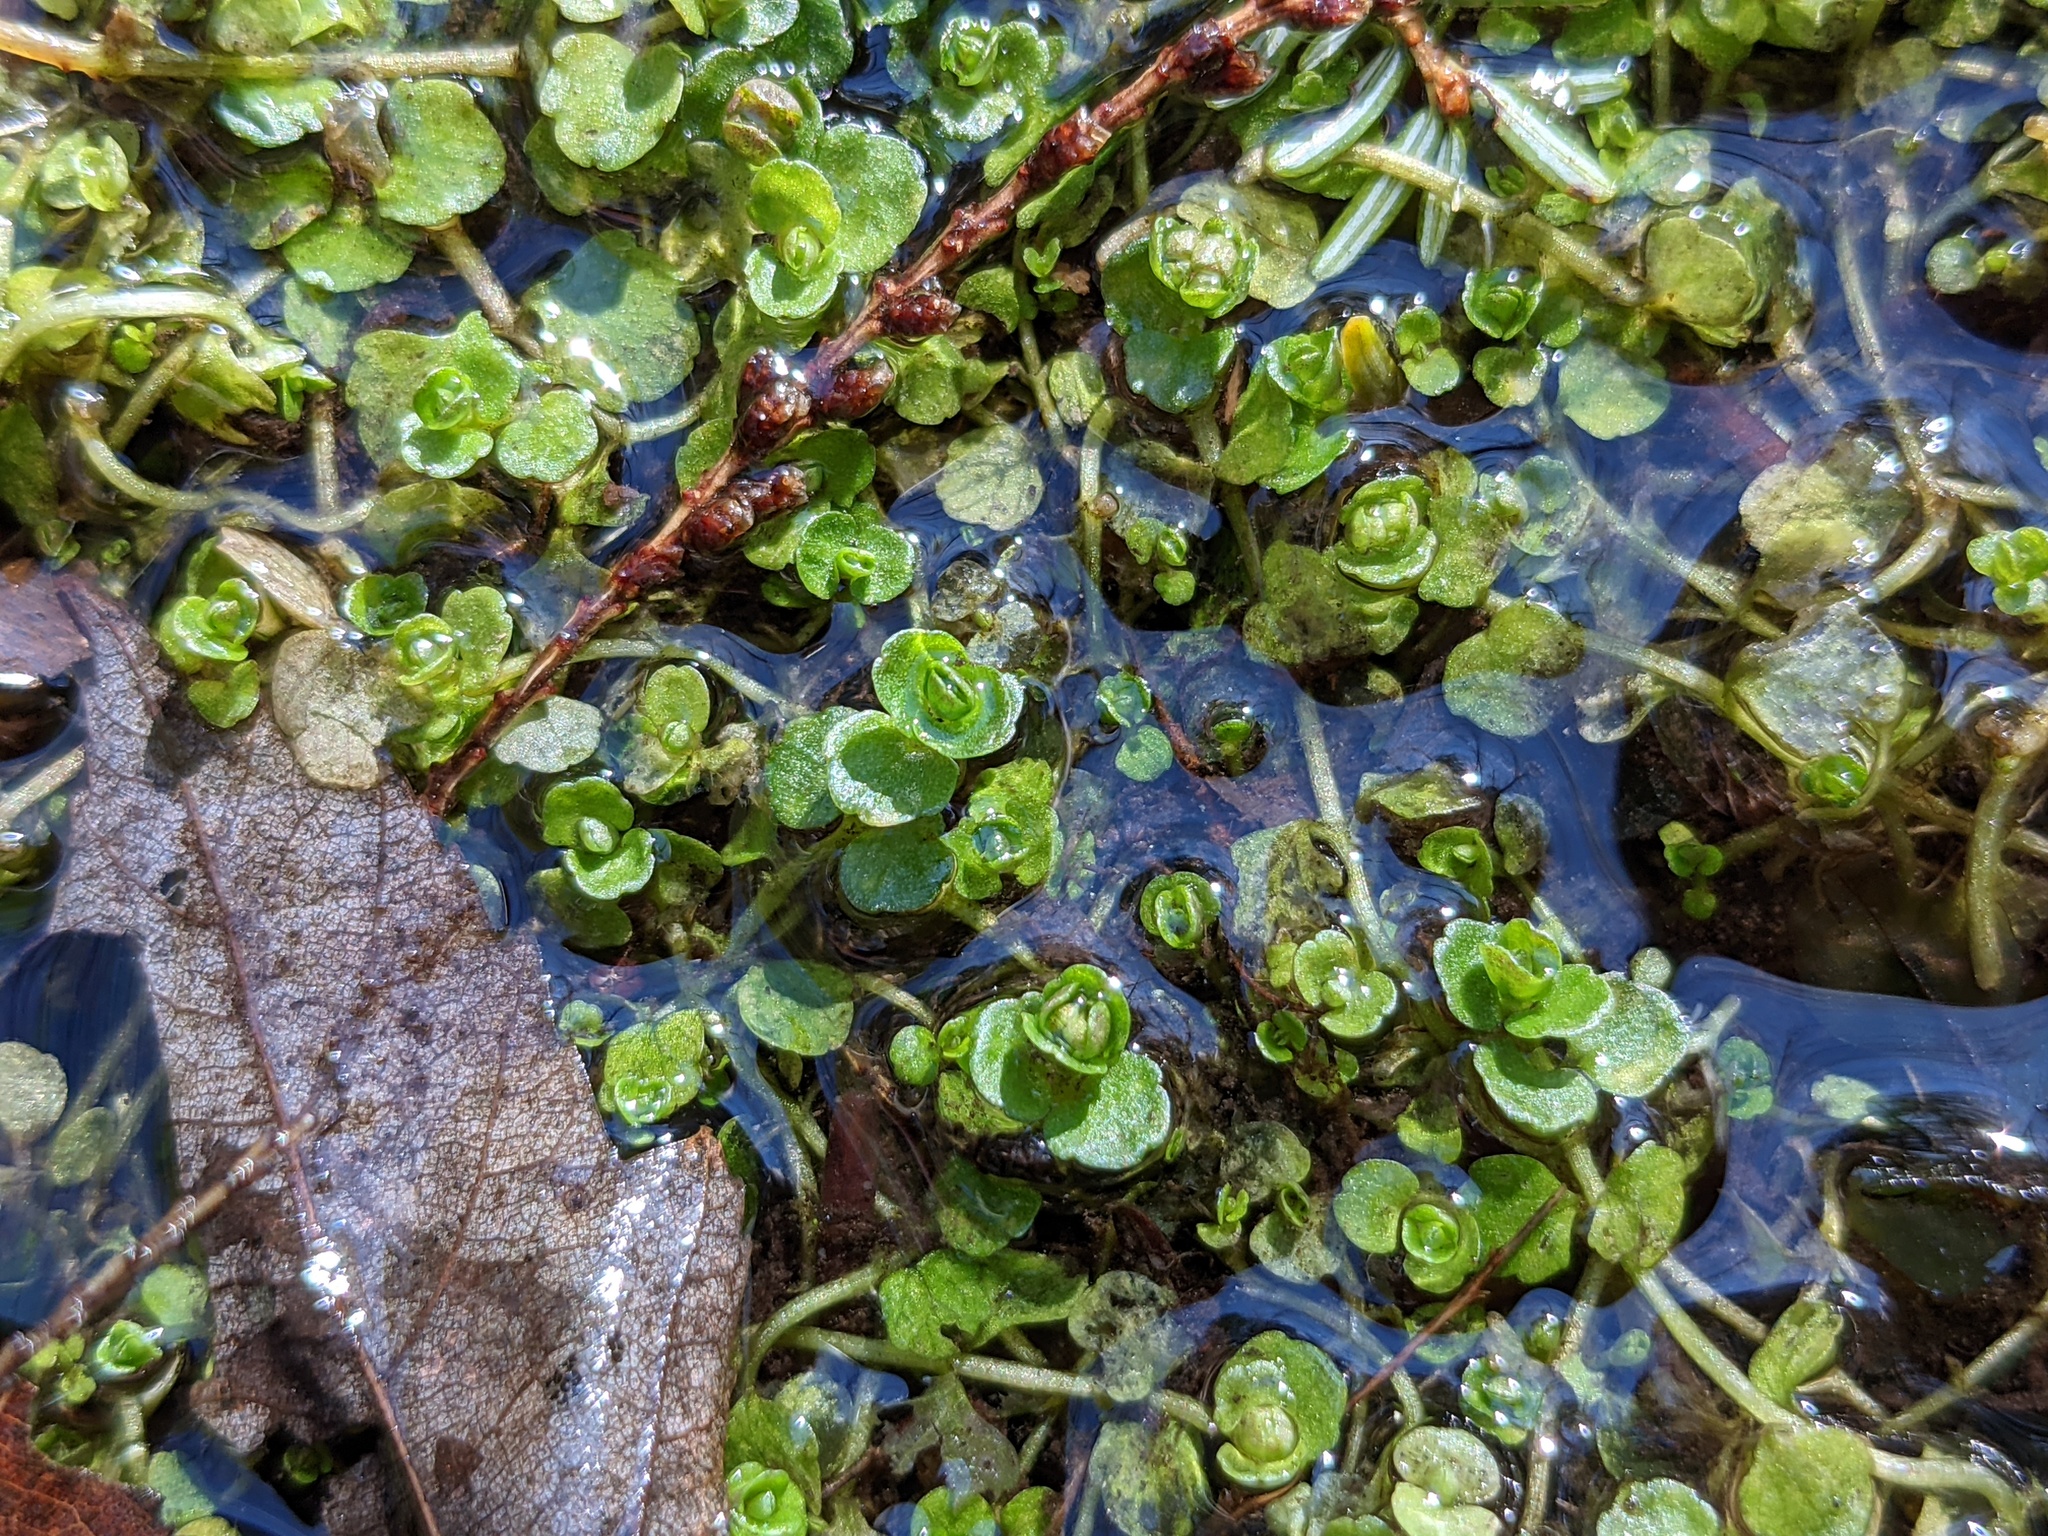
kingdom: Plantae
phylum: Tracheophyta
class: Magnoliopsida
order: Saxifragales
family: Saxifragaceae
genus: Chrysosplenium
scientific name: Chrysosplenium americanum
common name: American golden-saxifrage
